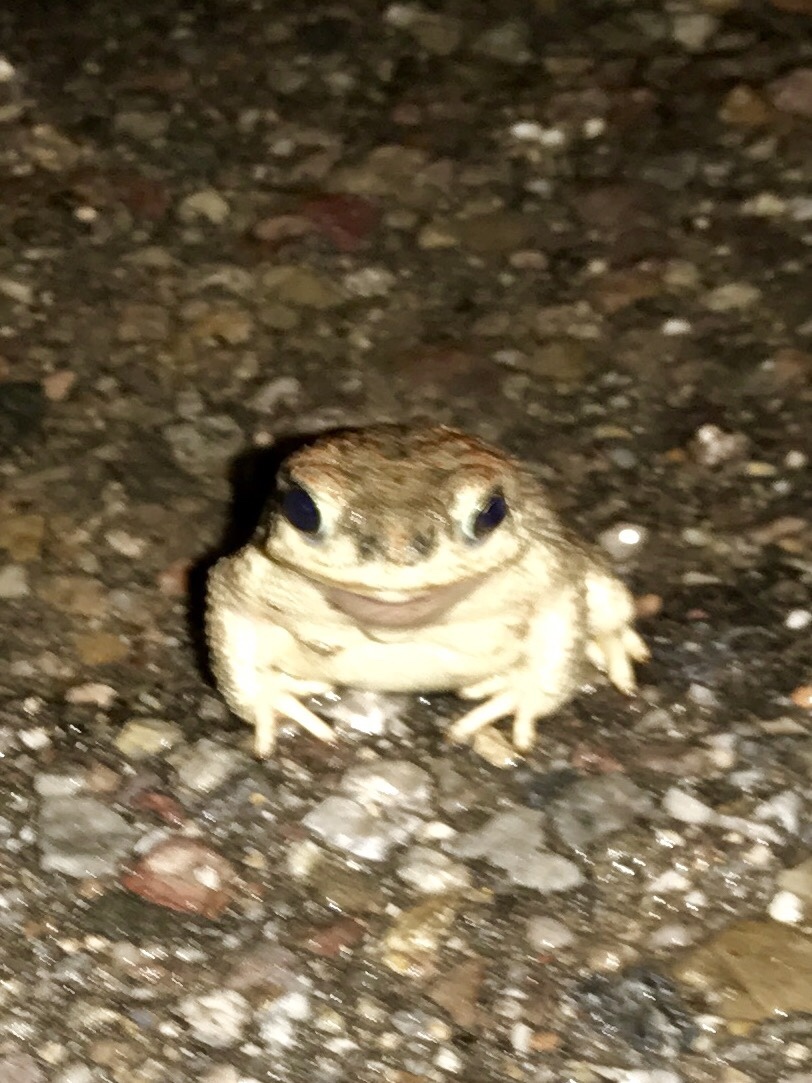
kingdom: Animalia
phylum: Chordata
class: Amphibia
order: Anura
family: Bufonidae
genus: Anaxyrus
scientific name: Anaxyrus punctatus
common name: Red-spotted toad
